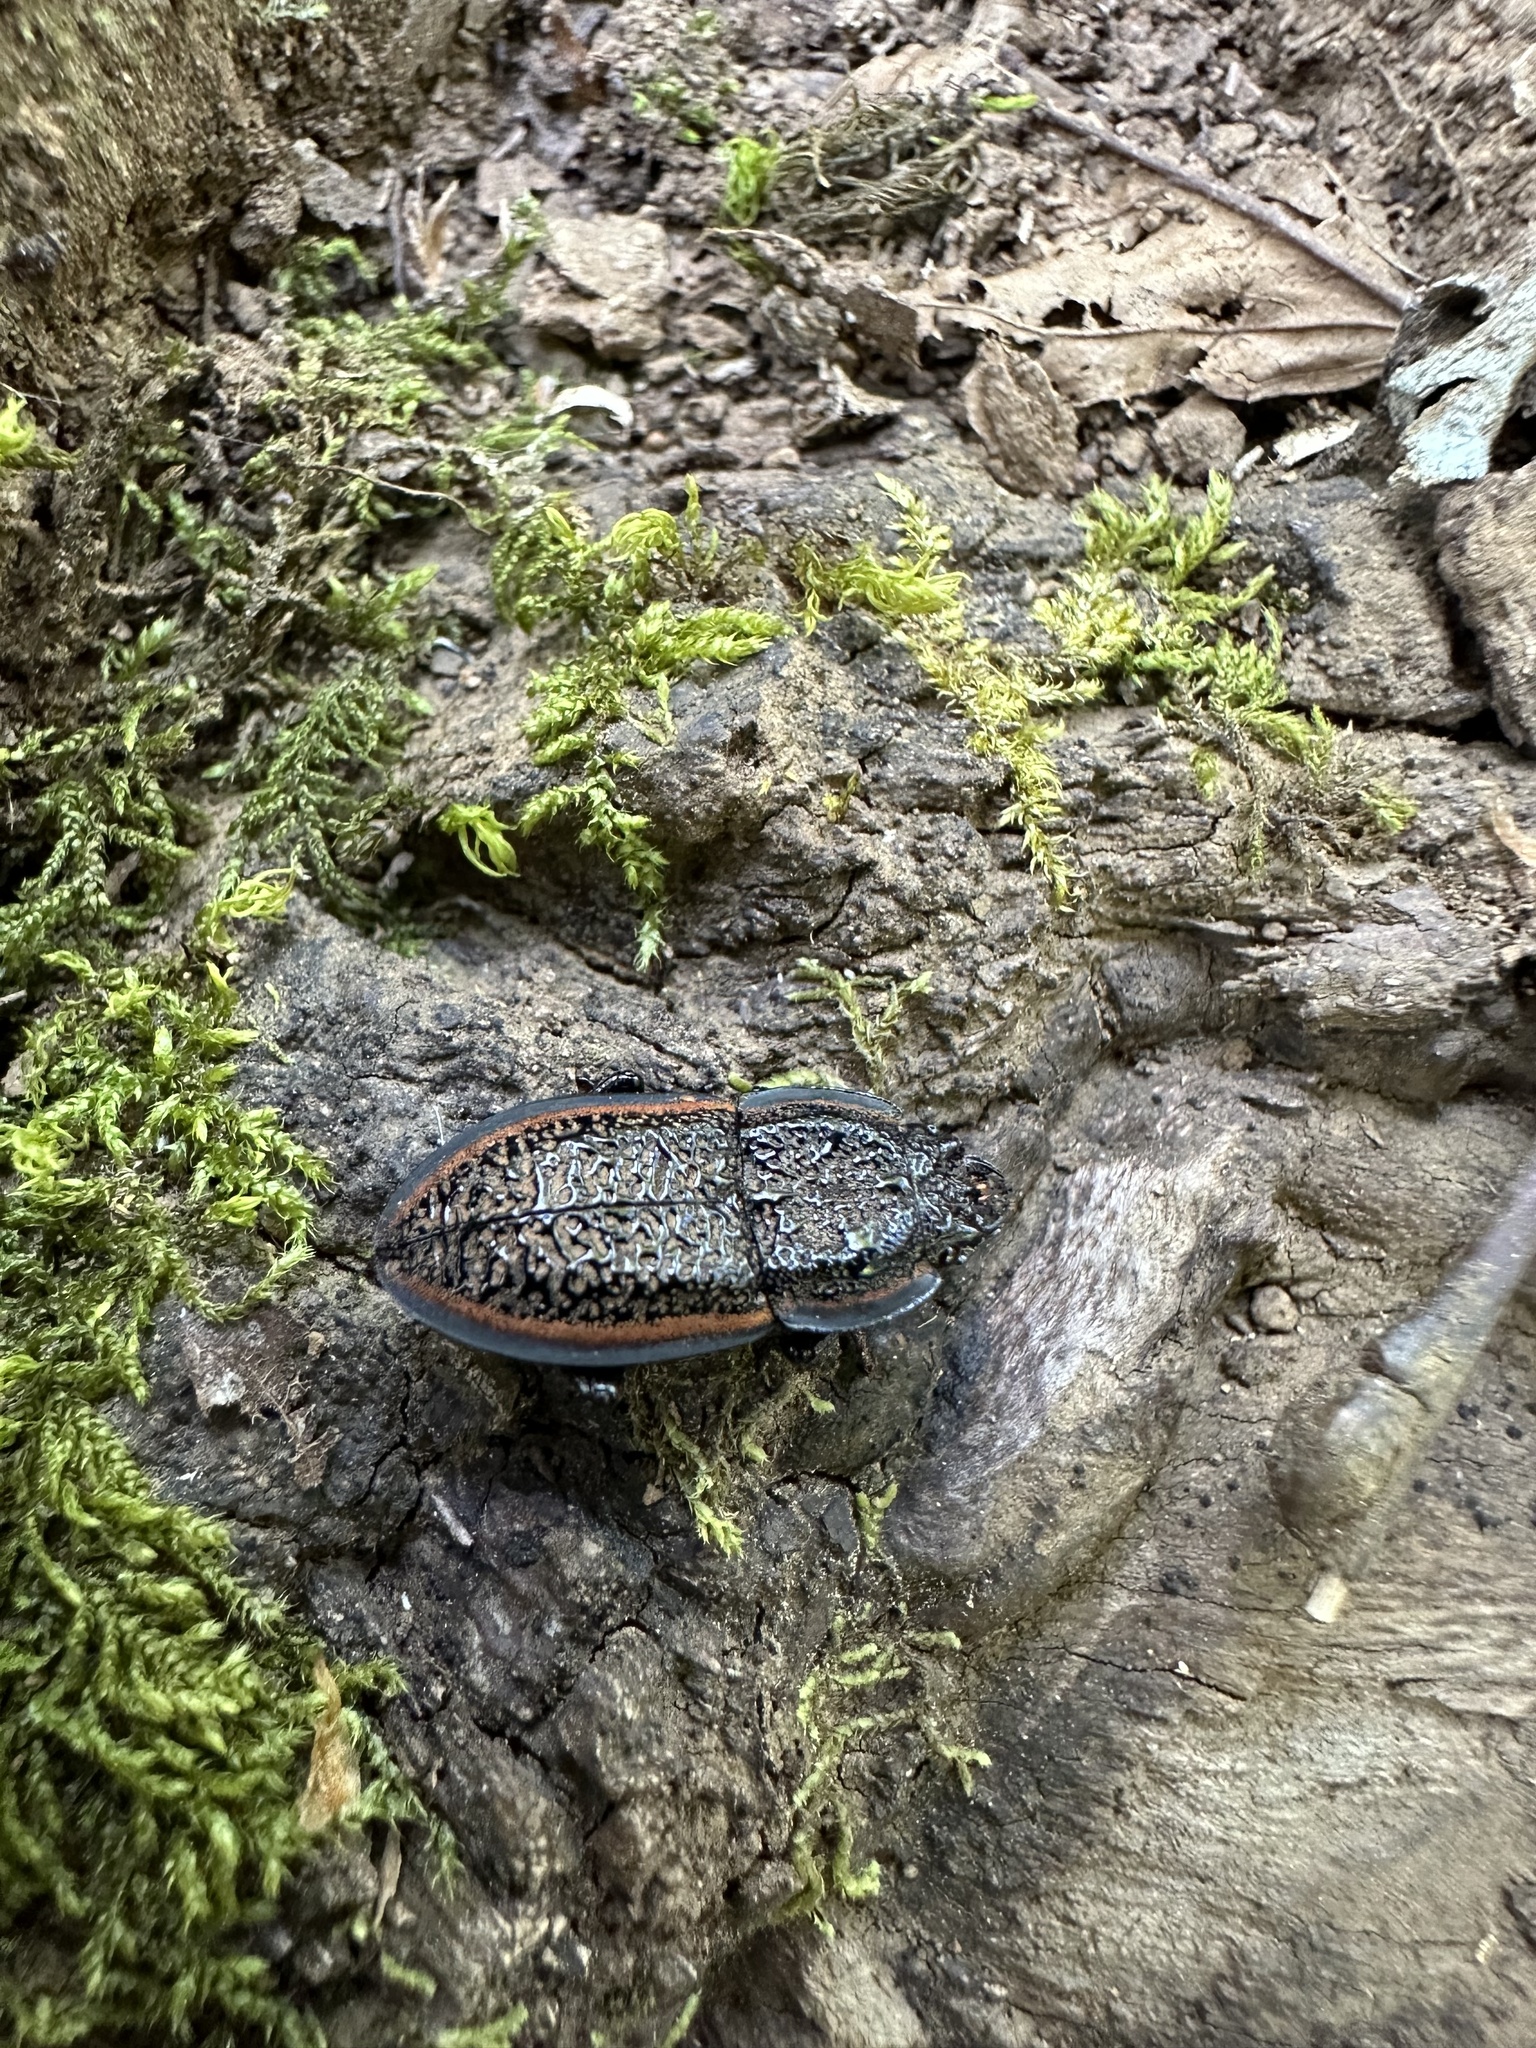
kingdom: Animalia
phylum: Arthropoda
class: Insecta
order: Coleoptera
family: Lucanidae
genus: Erichius
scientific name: Erichius caelatus
